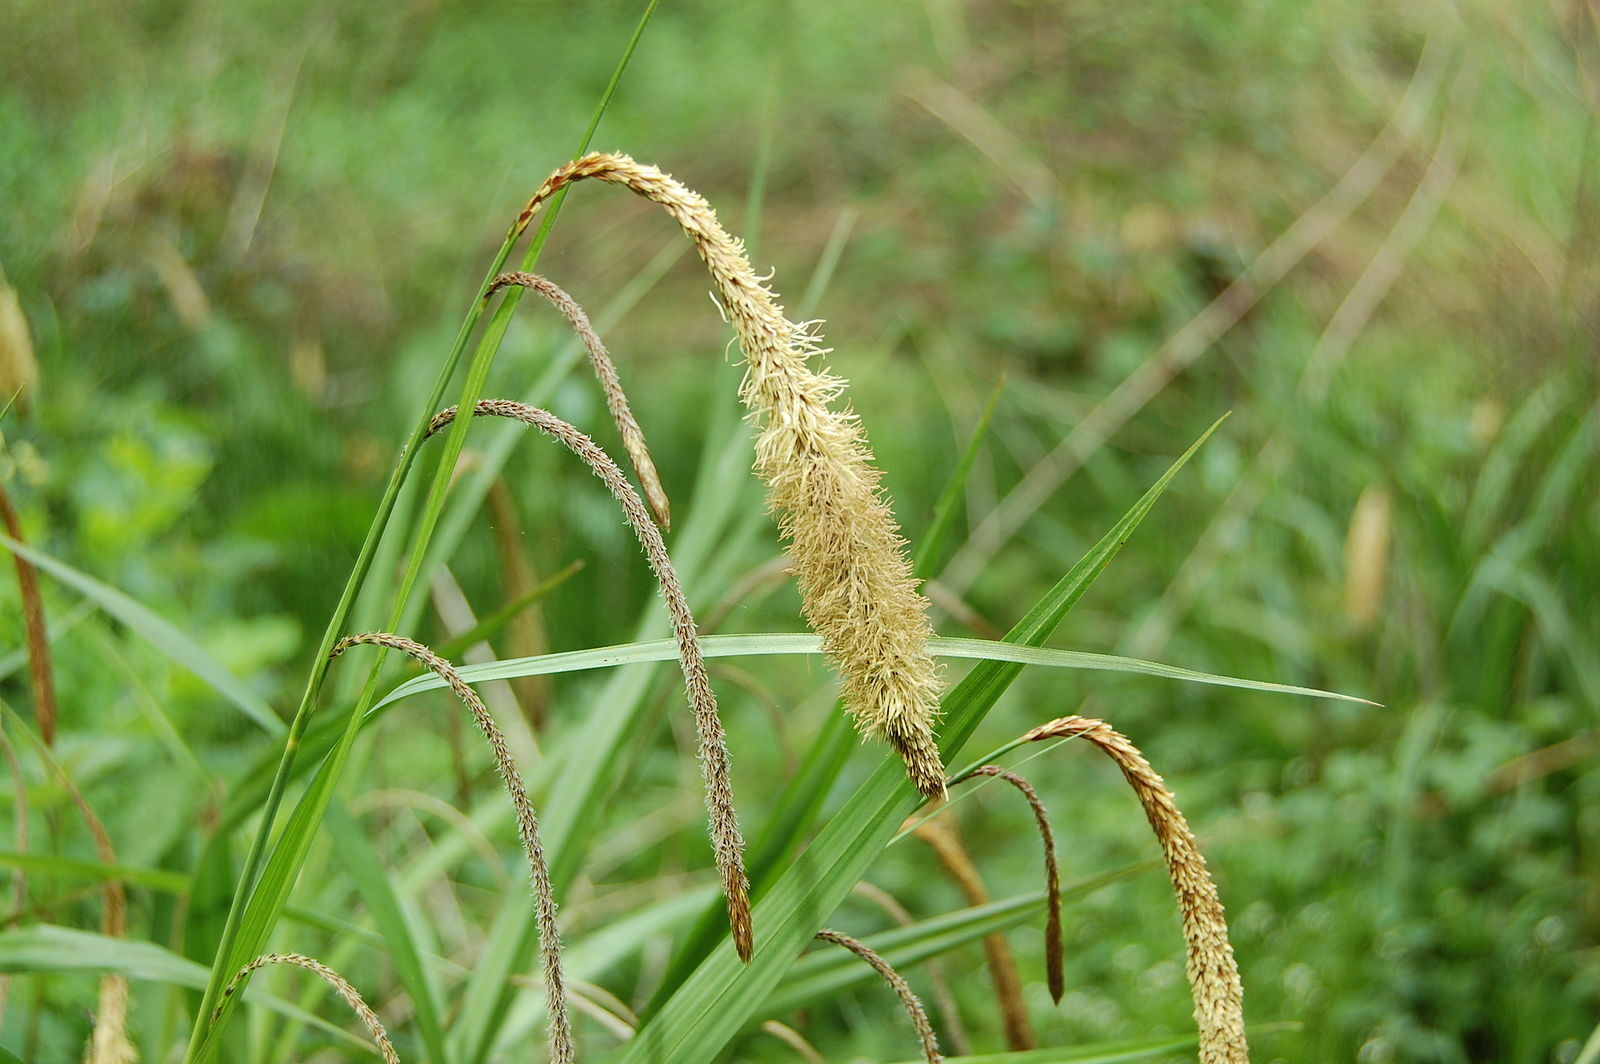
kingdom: Plantae
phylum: Tracheophyta
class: Liliopsida
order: Poales
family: Cyperaceae
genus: Carex
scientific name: Carex pendula
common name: Pendulous sedge
